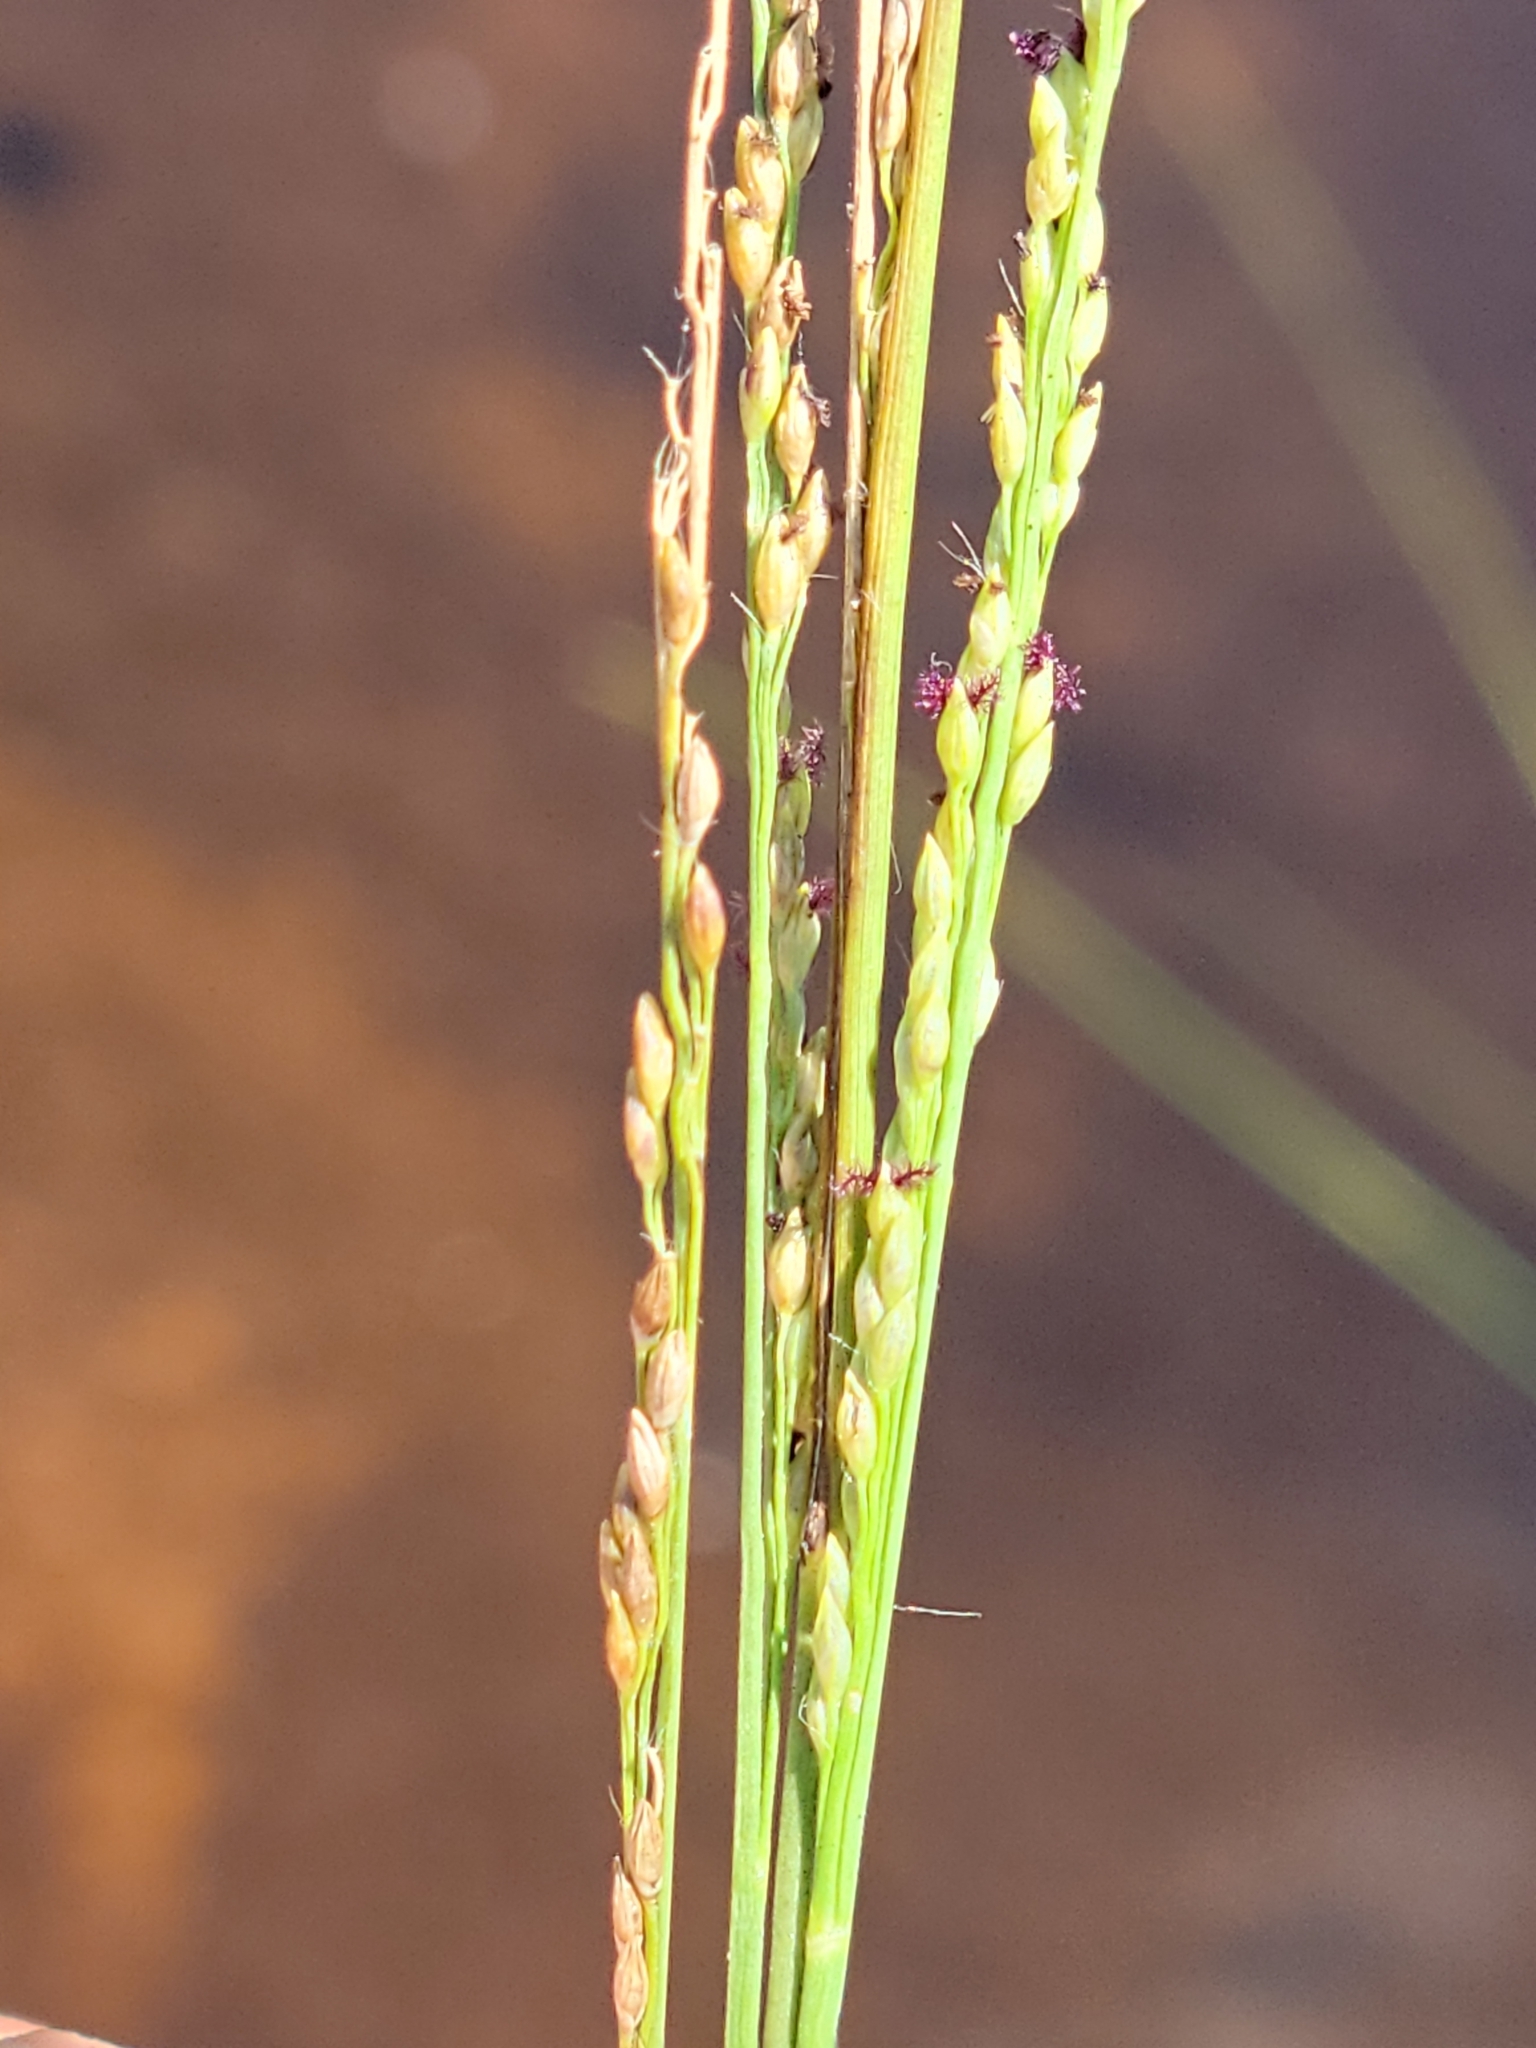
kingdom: Plantae
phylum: Tracheophyta
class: Liliopsida
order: Poales
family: Poaceae
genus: Coleataenia
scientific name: Coleataenia tenera
